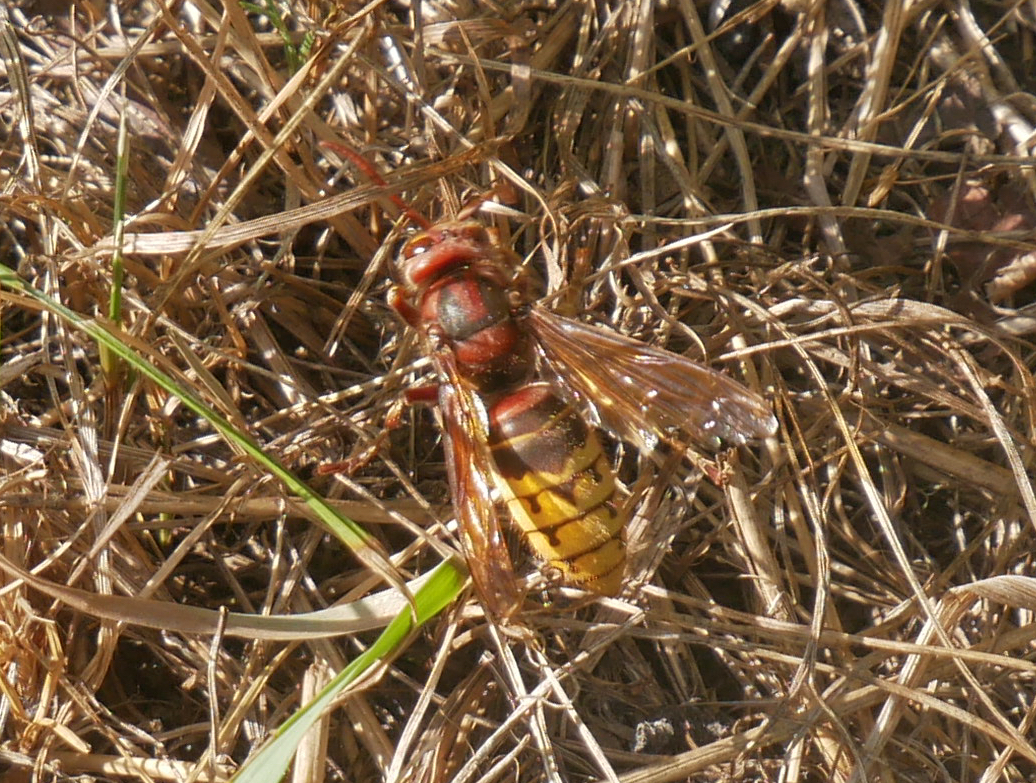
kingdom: Animalia
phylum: Arthropoda
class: Insecta
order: Hymenoptera
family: Vespidae
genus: Vespa
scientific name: Vespa crabro
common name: Hornet
